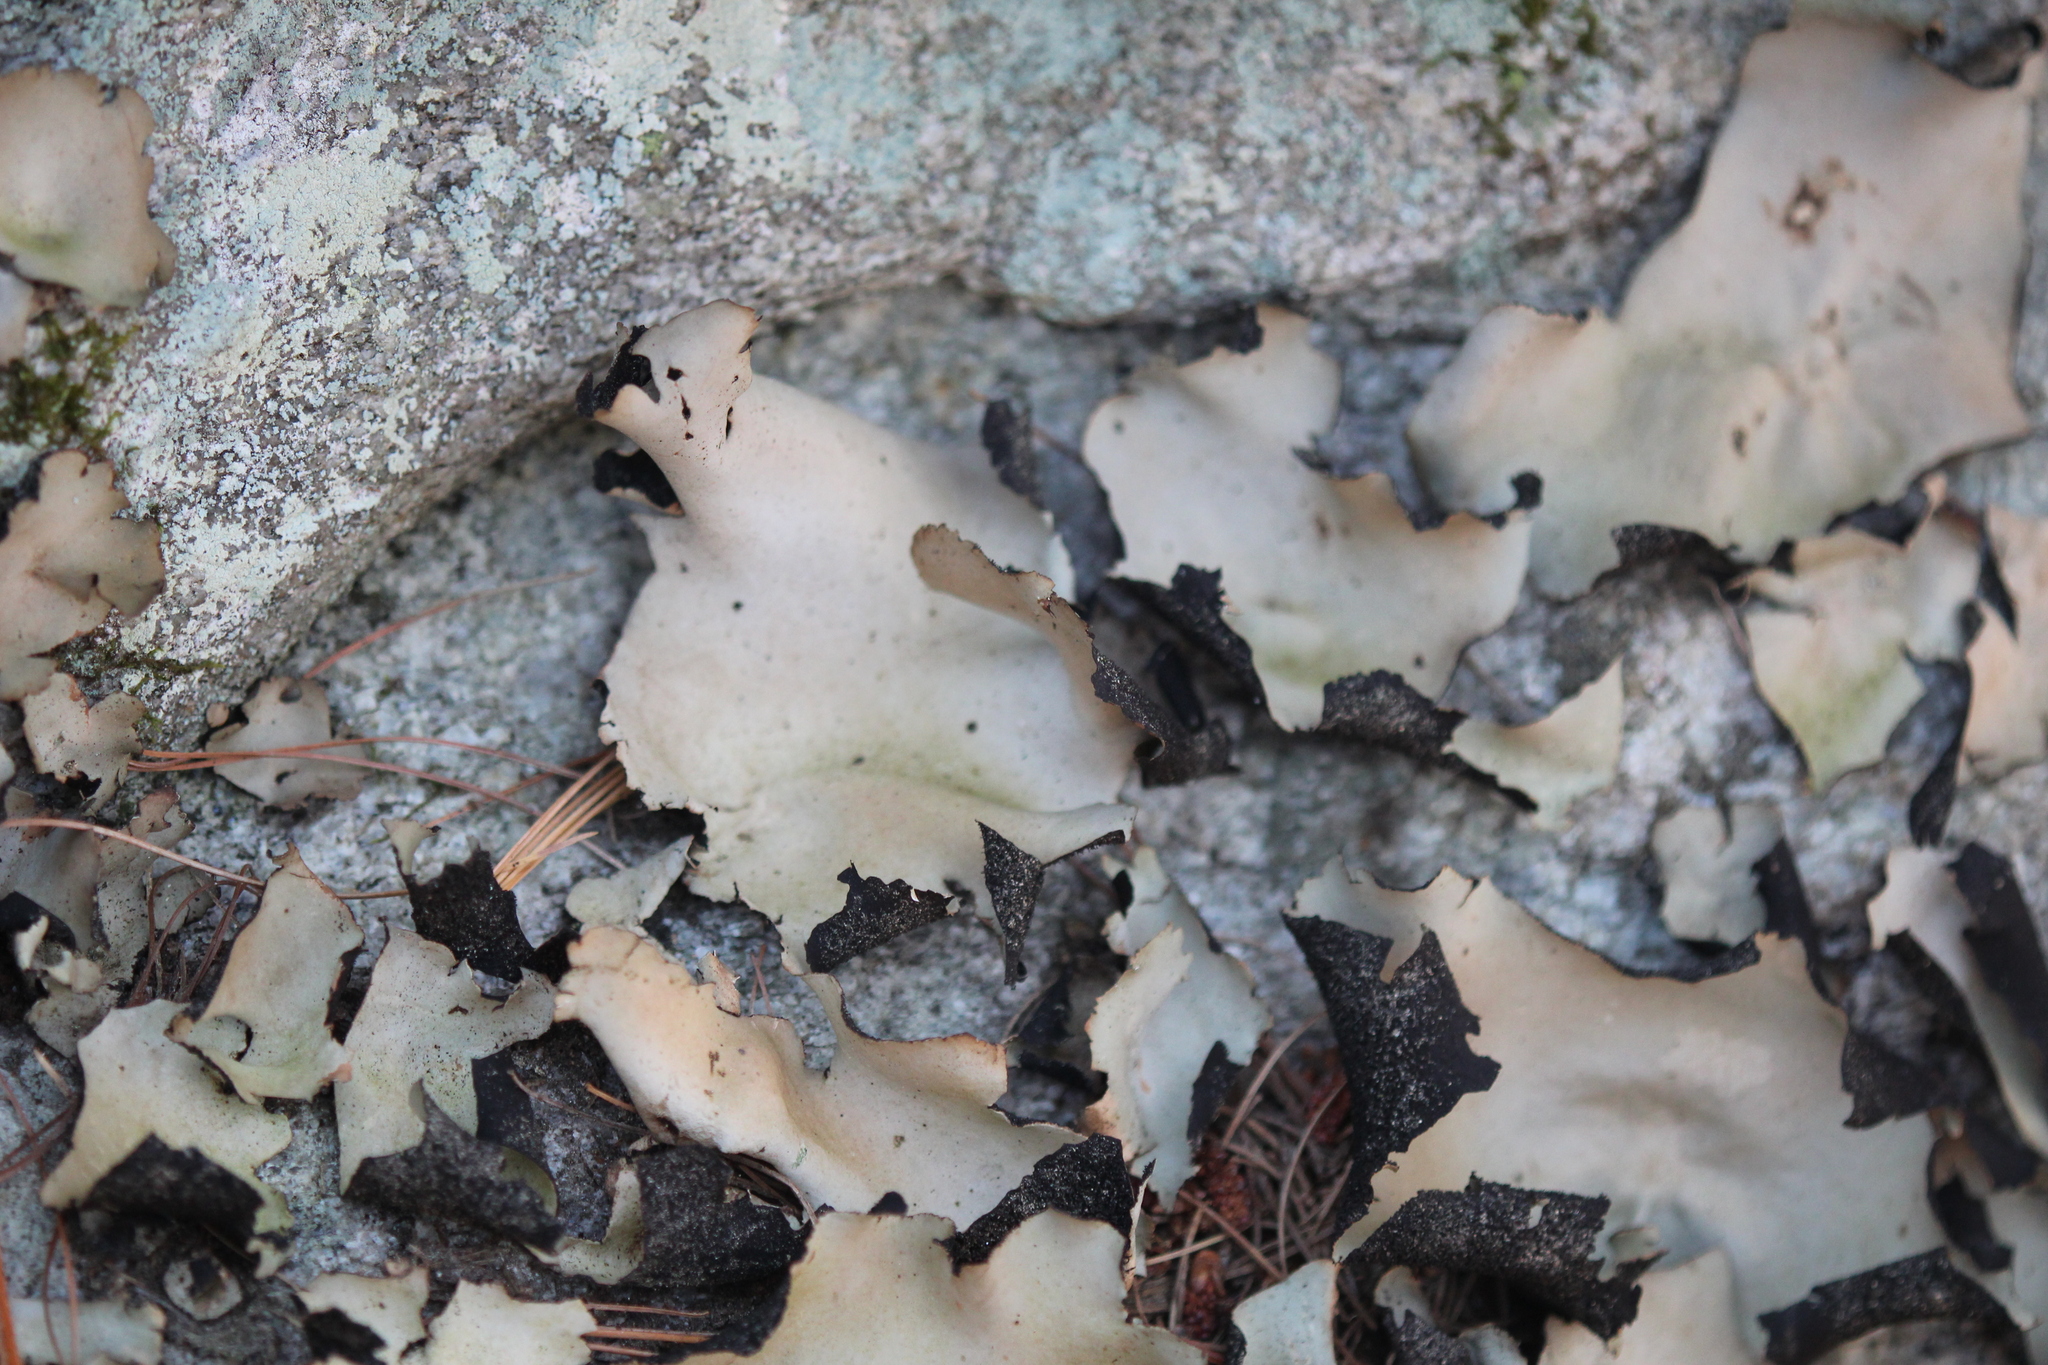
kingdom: Fungi
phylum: Ascomycota
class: Lecanoromycetes
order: Umbilicariales
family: Umbilicariaceae
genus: Umbilicaria
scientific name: Umbilicaria mammulata
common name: Smooth rock tripe
